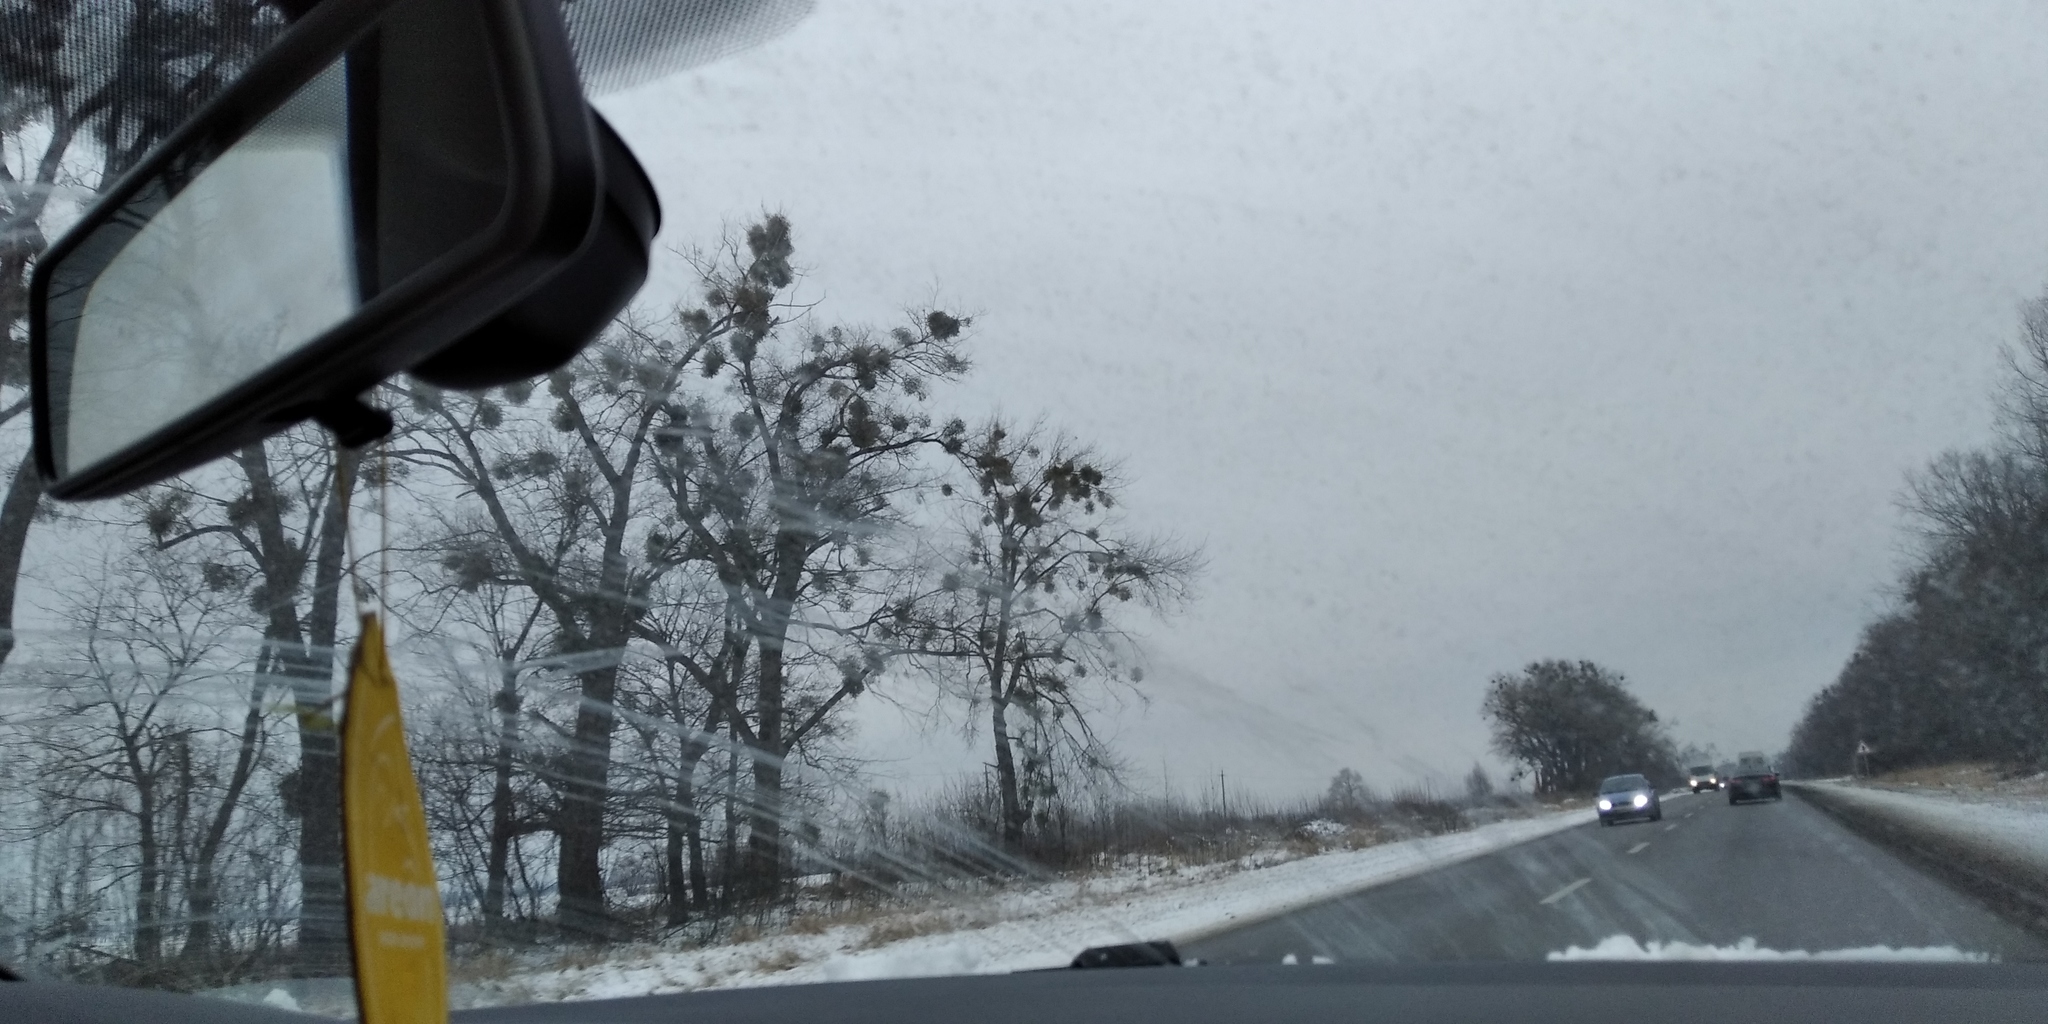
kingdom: Plantae
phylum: Tracheophyta
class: Magnoliopsida
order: Santalales
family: Viscaceae
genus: Viscum
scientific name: Viscum album
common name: Mistletoe
